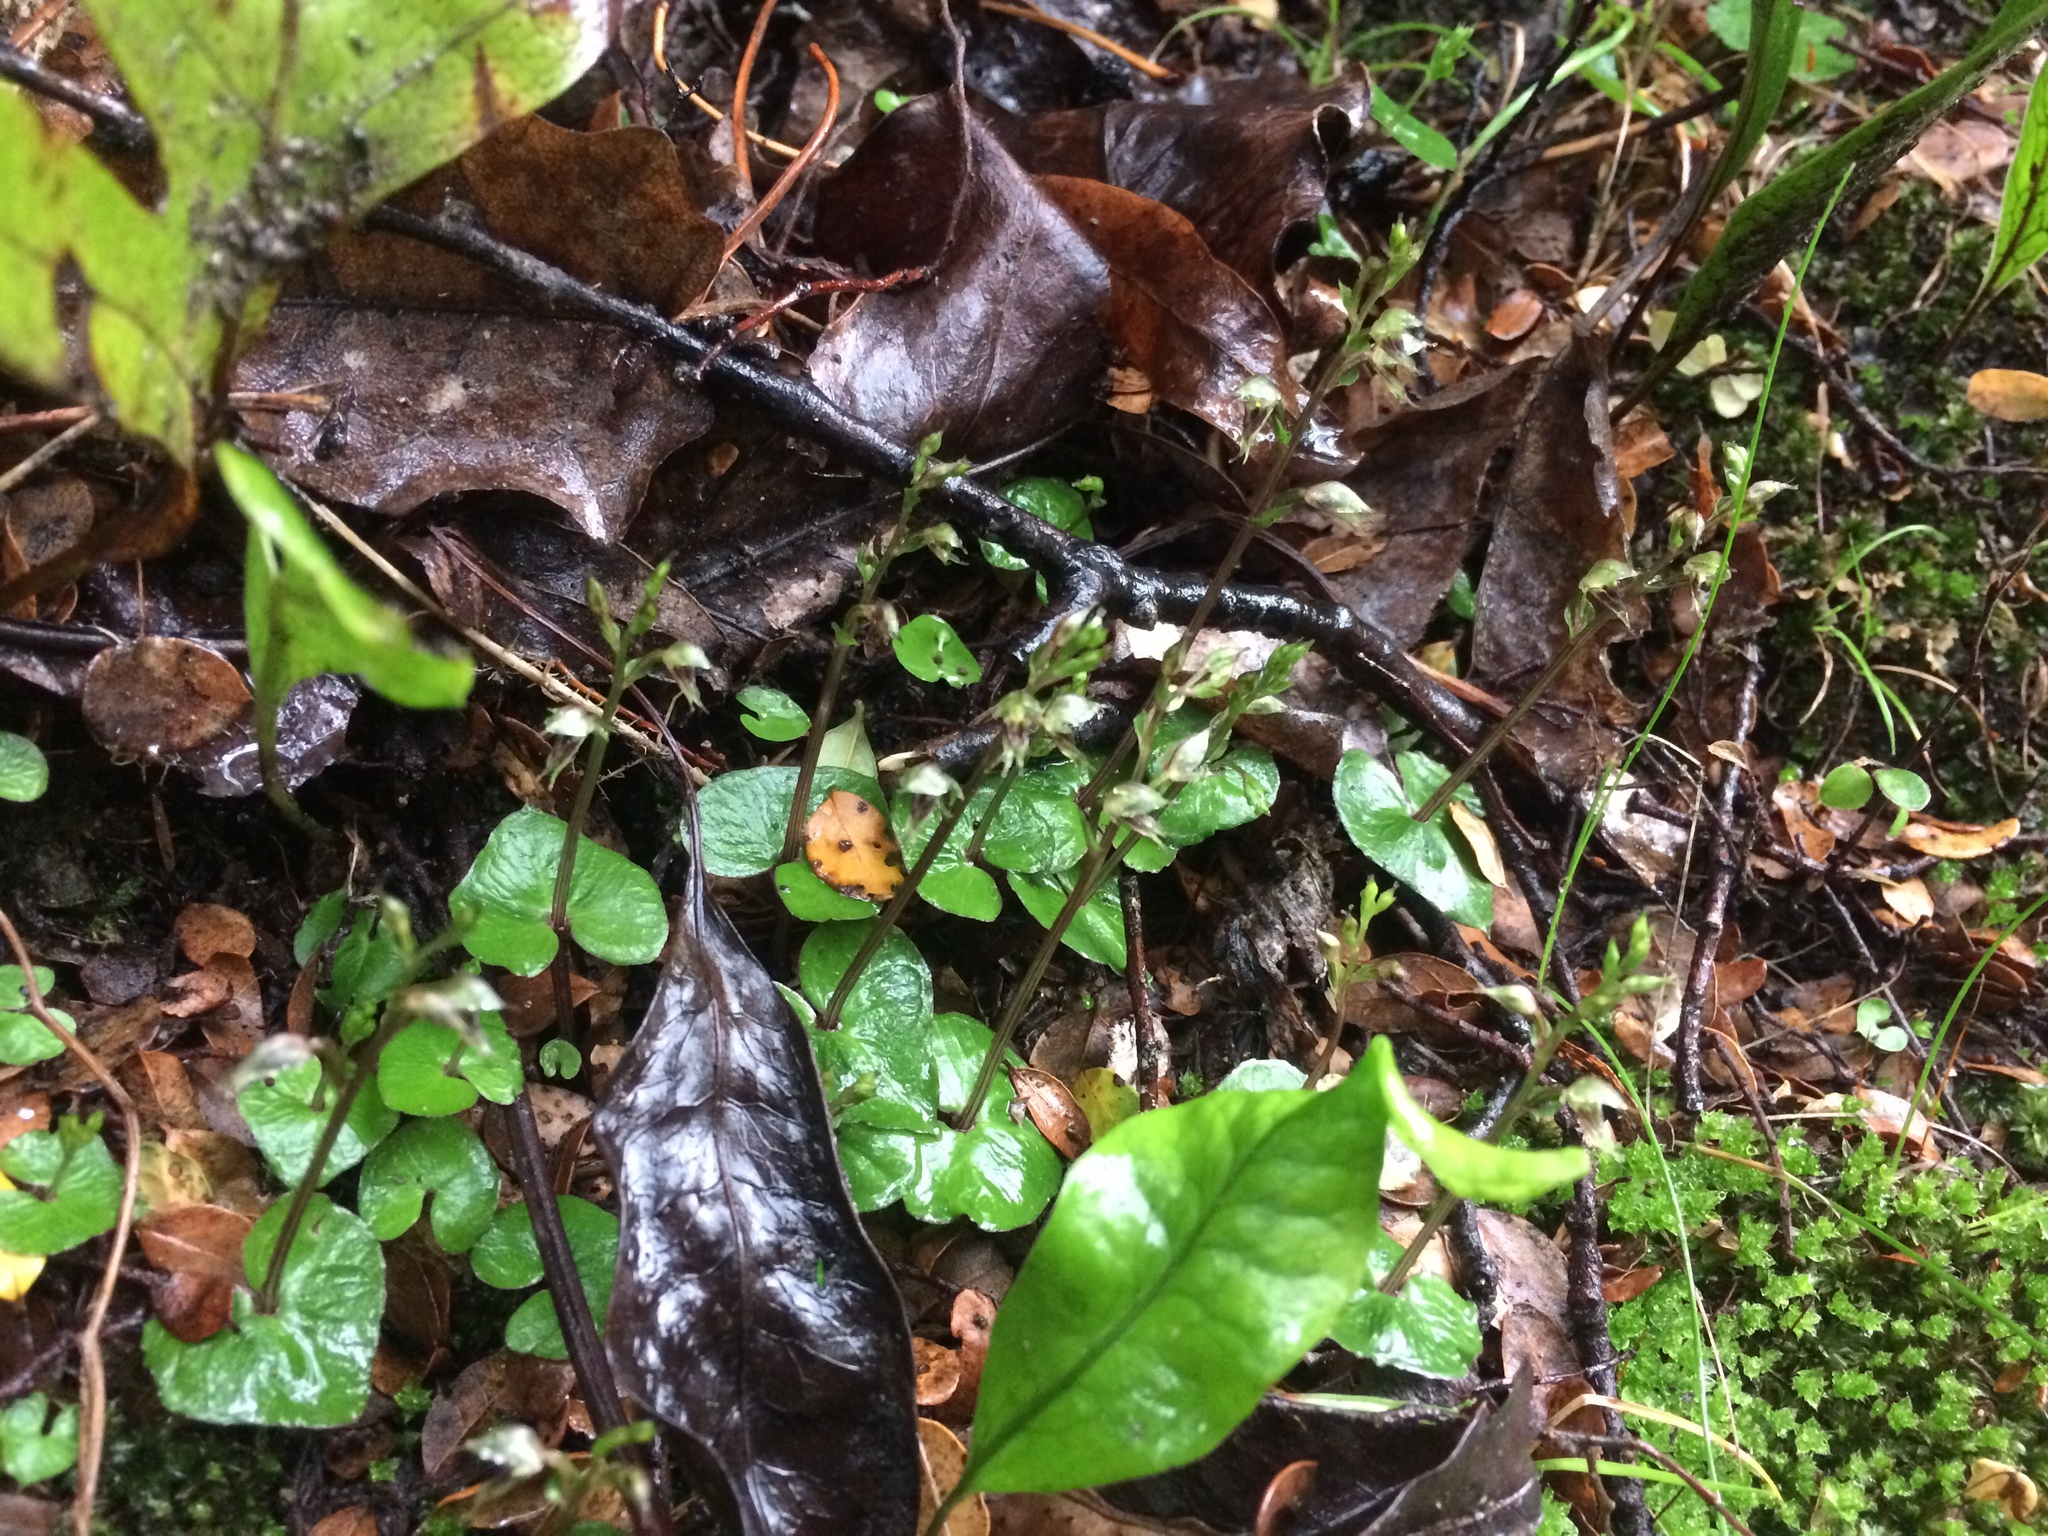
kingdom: Plantae
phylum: Tracheophyta
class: Liliopsida
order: Asparagales
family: Orchidaceae
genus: Acianthus
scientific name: Acianthus sinclairii
